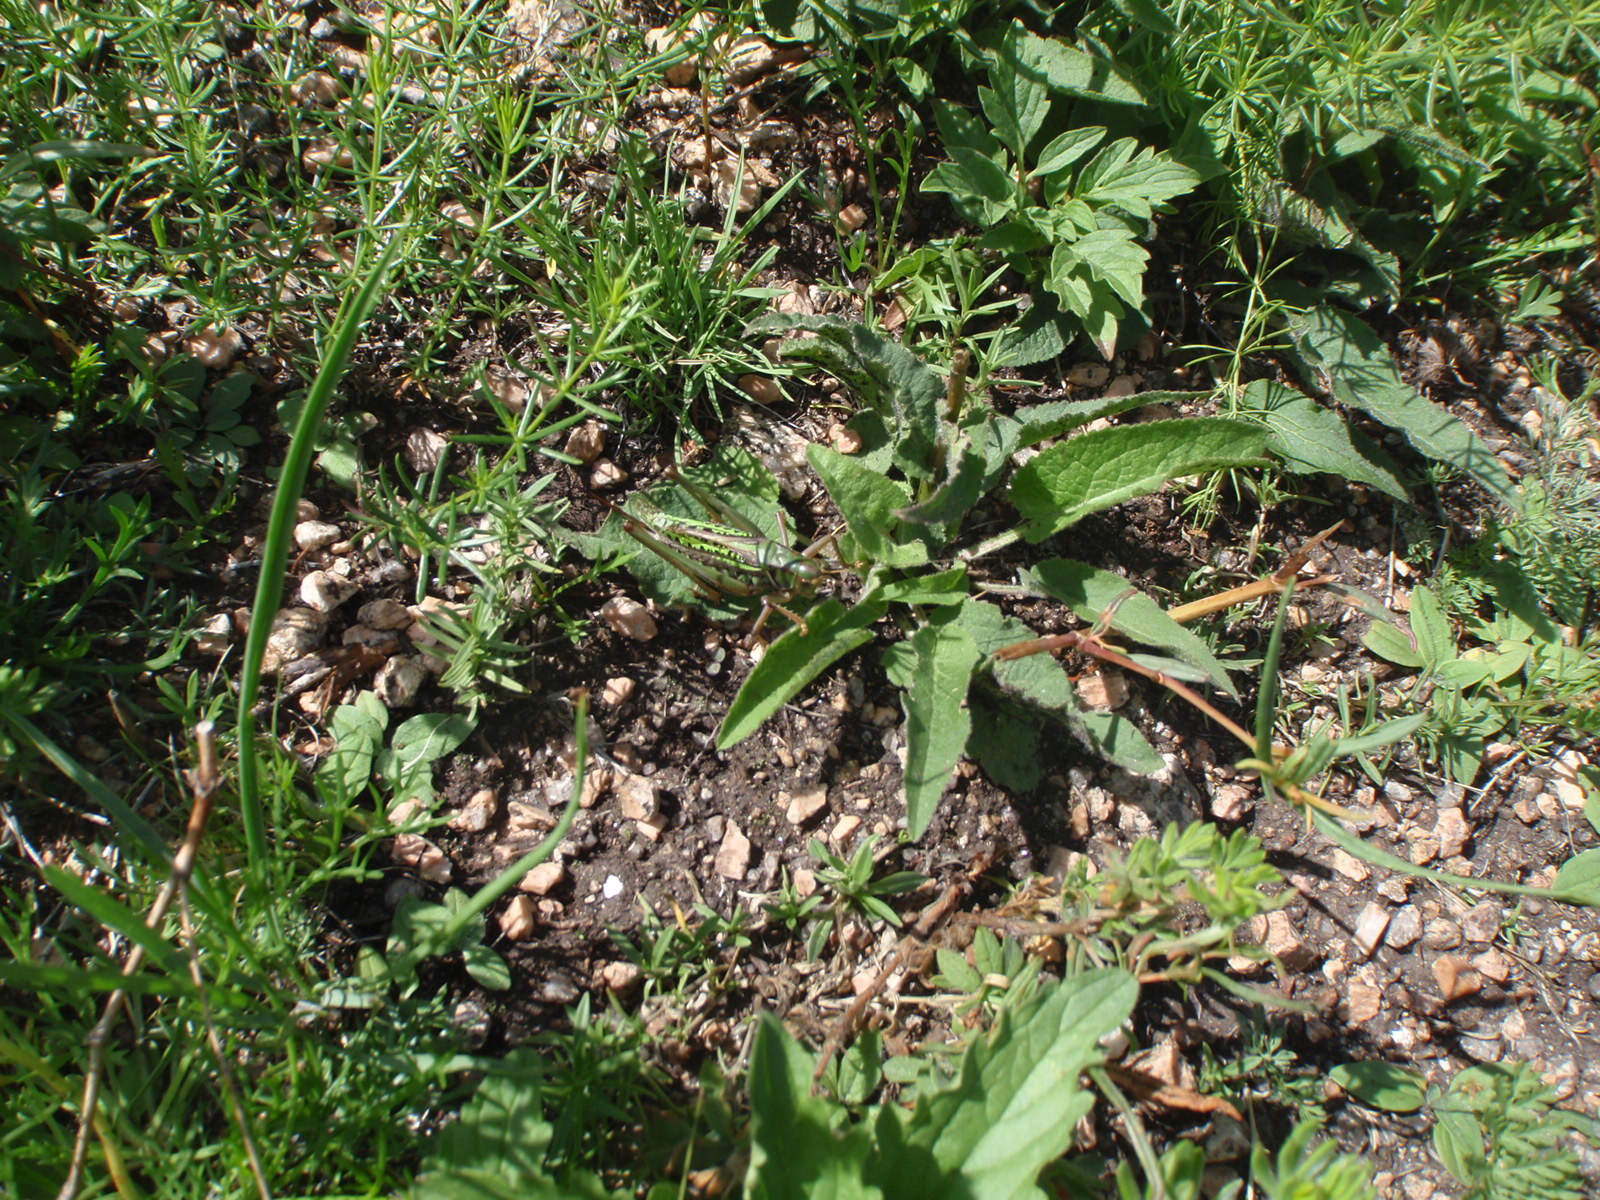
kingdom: Animalia
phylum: Arthropoda
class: Insecta
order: Orthoptera
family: Tettigoniidae
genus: Gampsocleis
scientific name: Gampsocleis sedakovii
